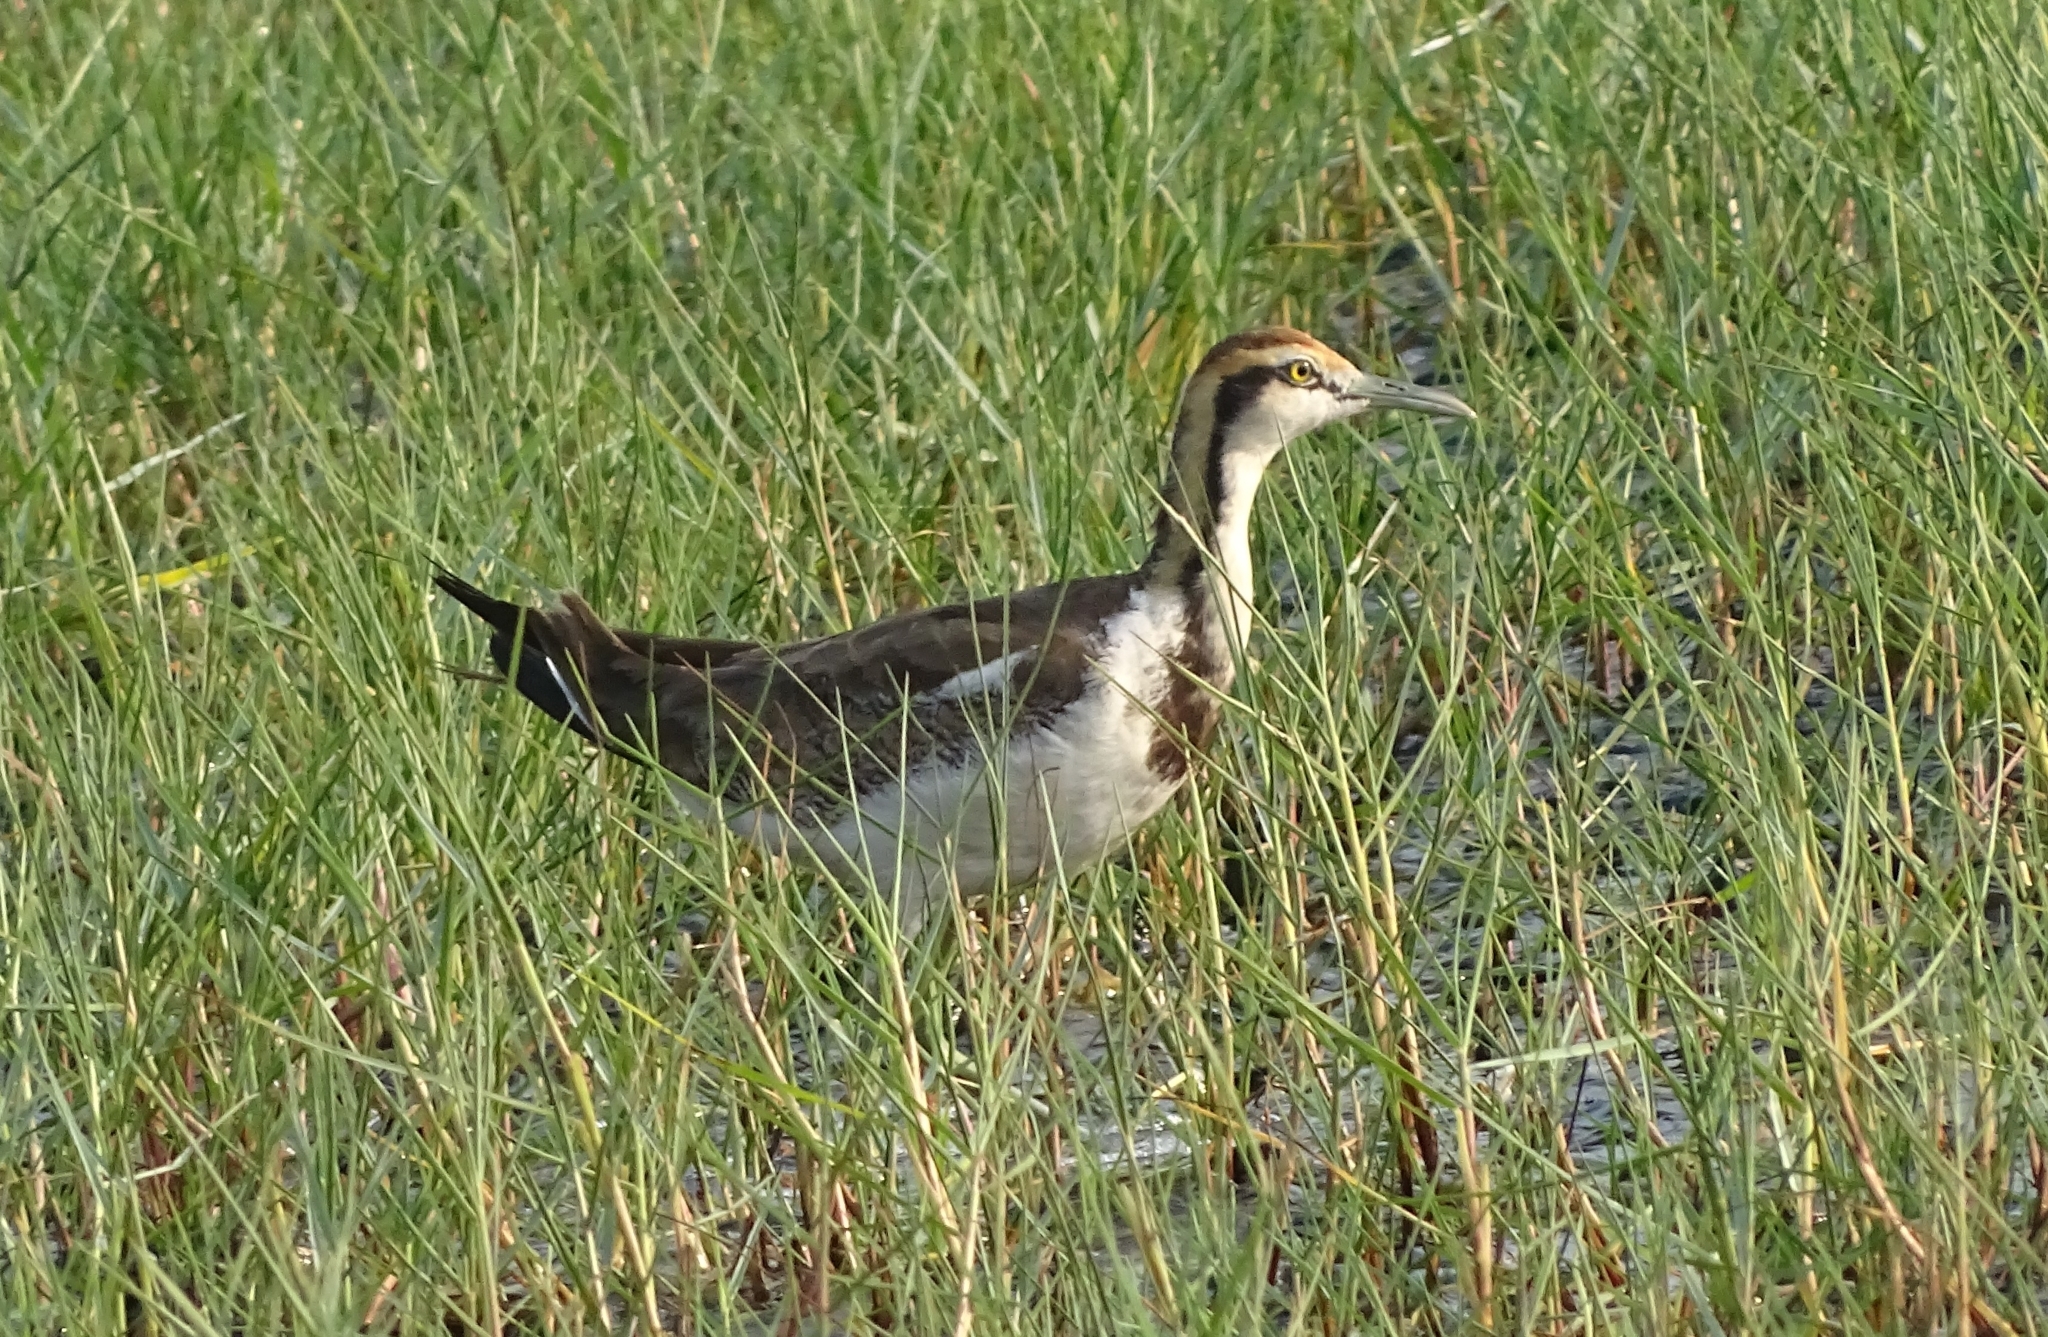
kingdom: Animalia
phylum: Chordata
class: Aves
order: Charadriiformes
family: Jacanidae
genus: Hydrophasianus
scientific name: Hydrophasianus chirurgus
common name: Pheasant-tailed jacana
